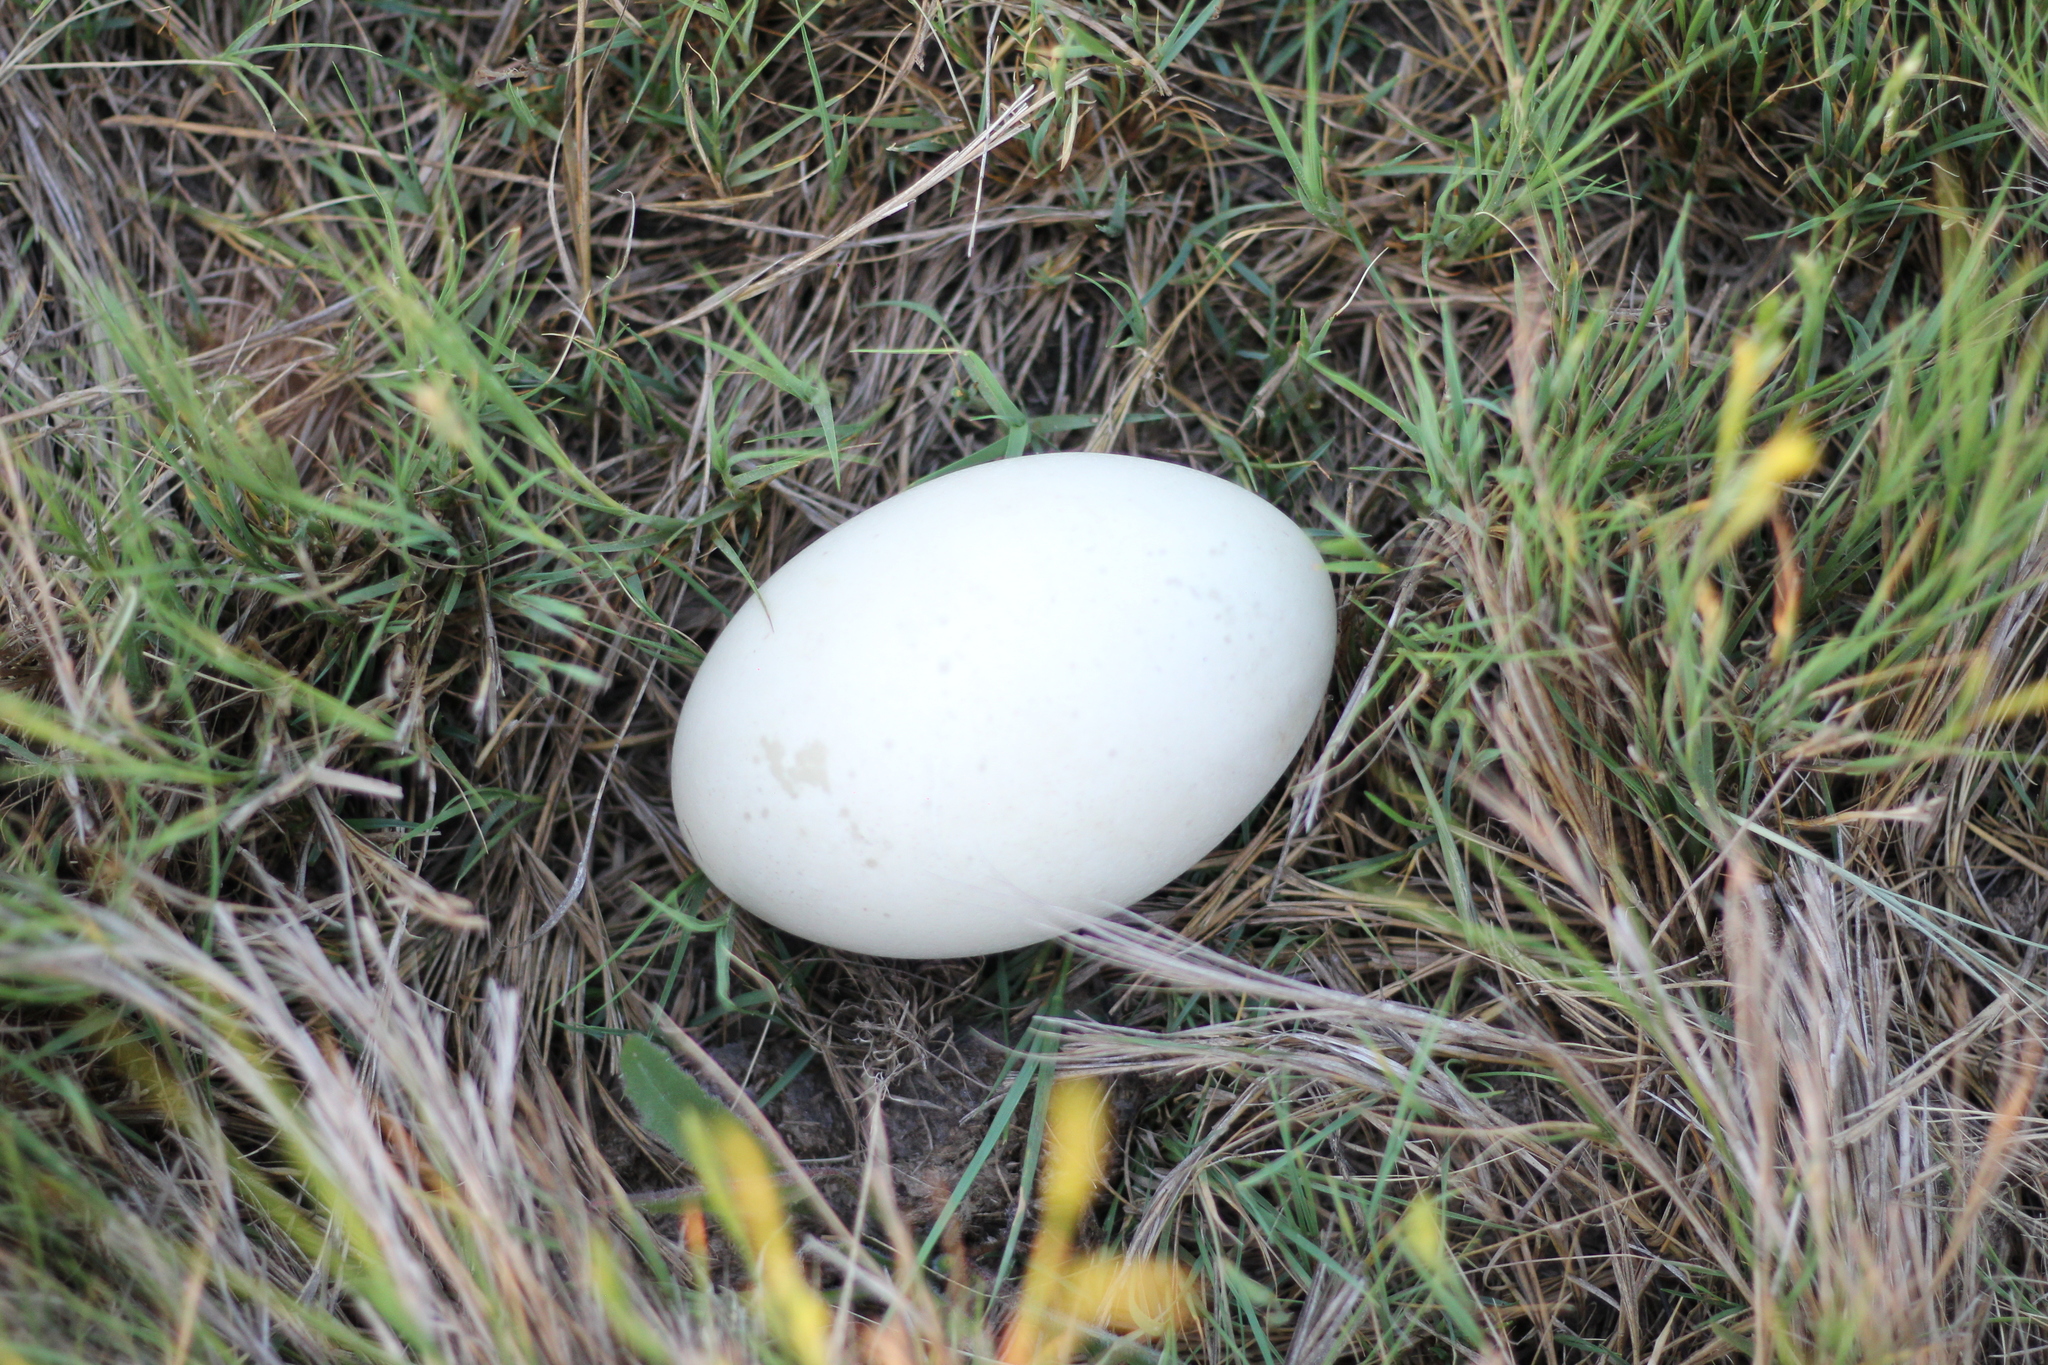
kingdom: Animalia
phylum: Chordata
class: Aves
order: Rheiformes
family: Rheidae
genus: Rhea
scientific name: Rhea americana
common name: Greater rhea
